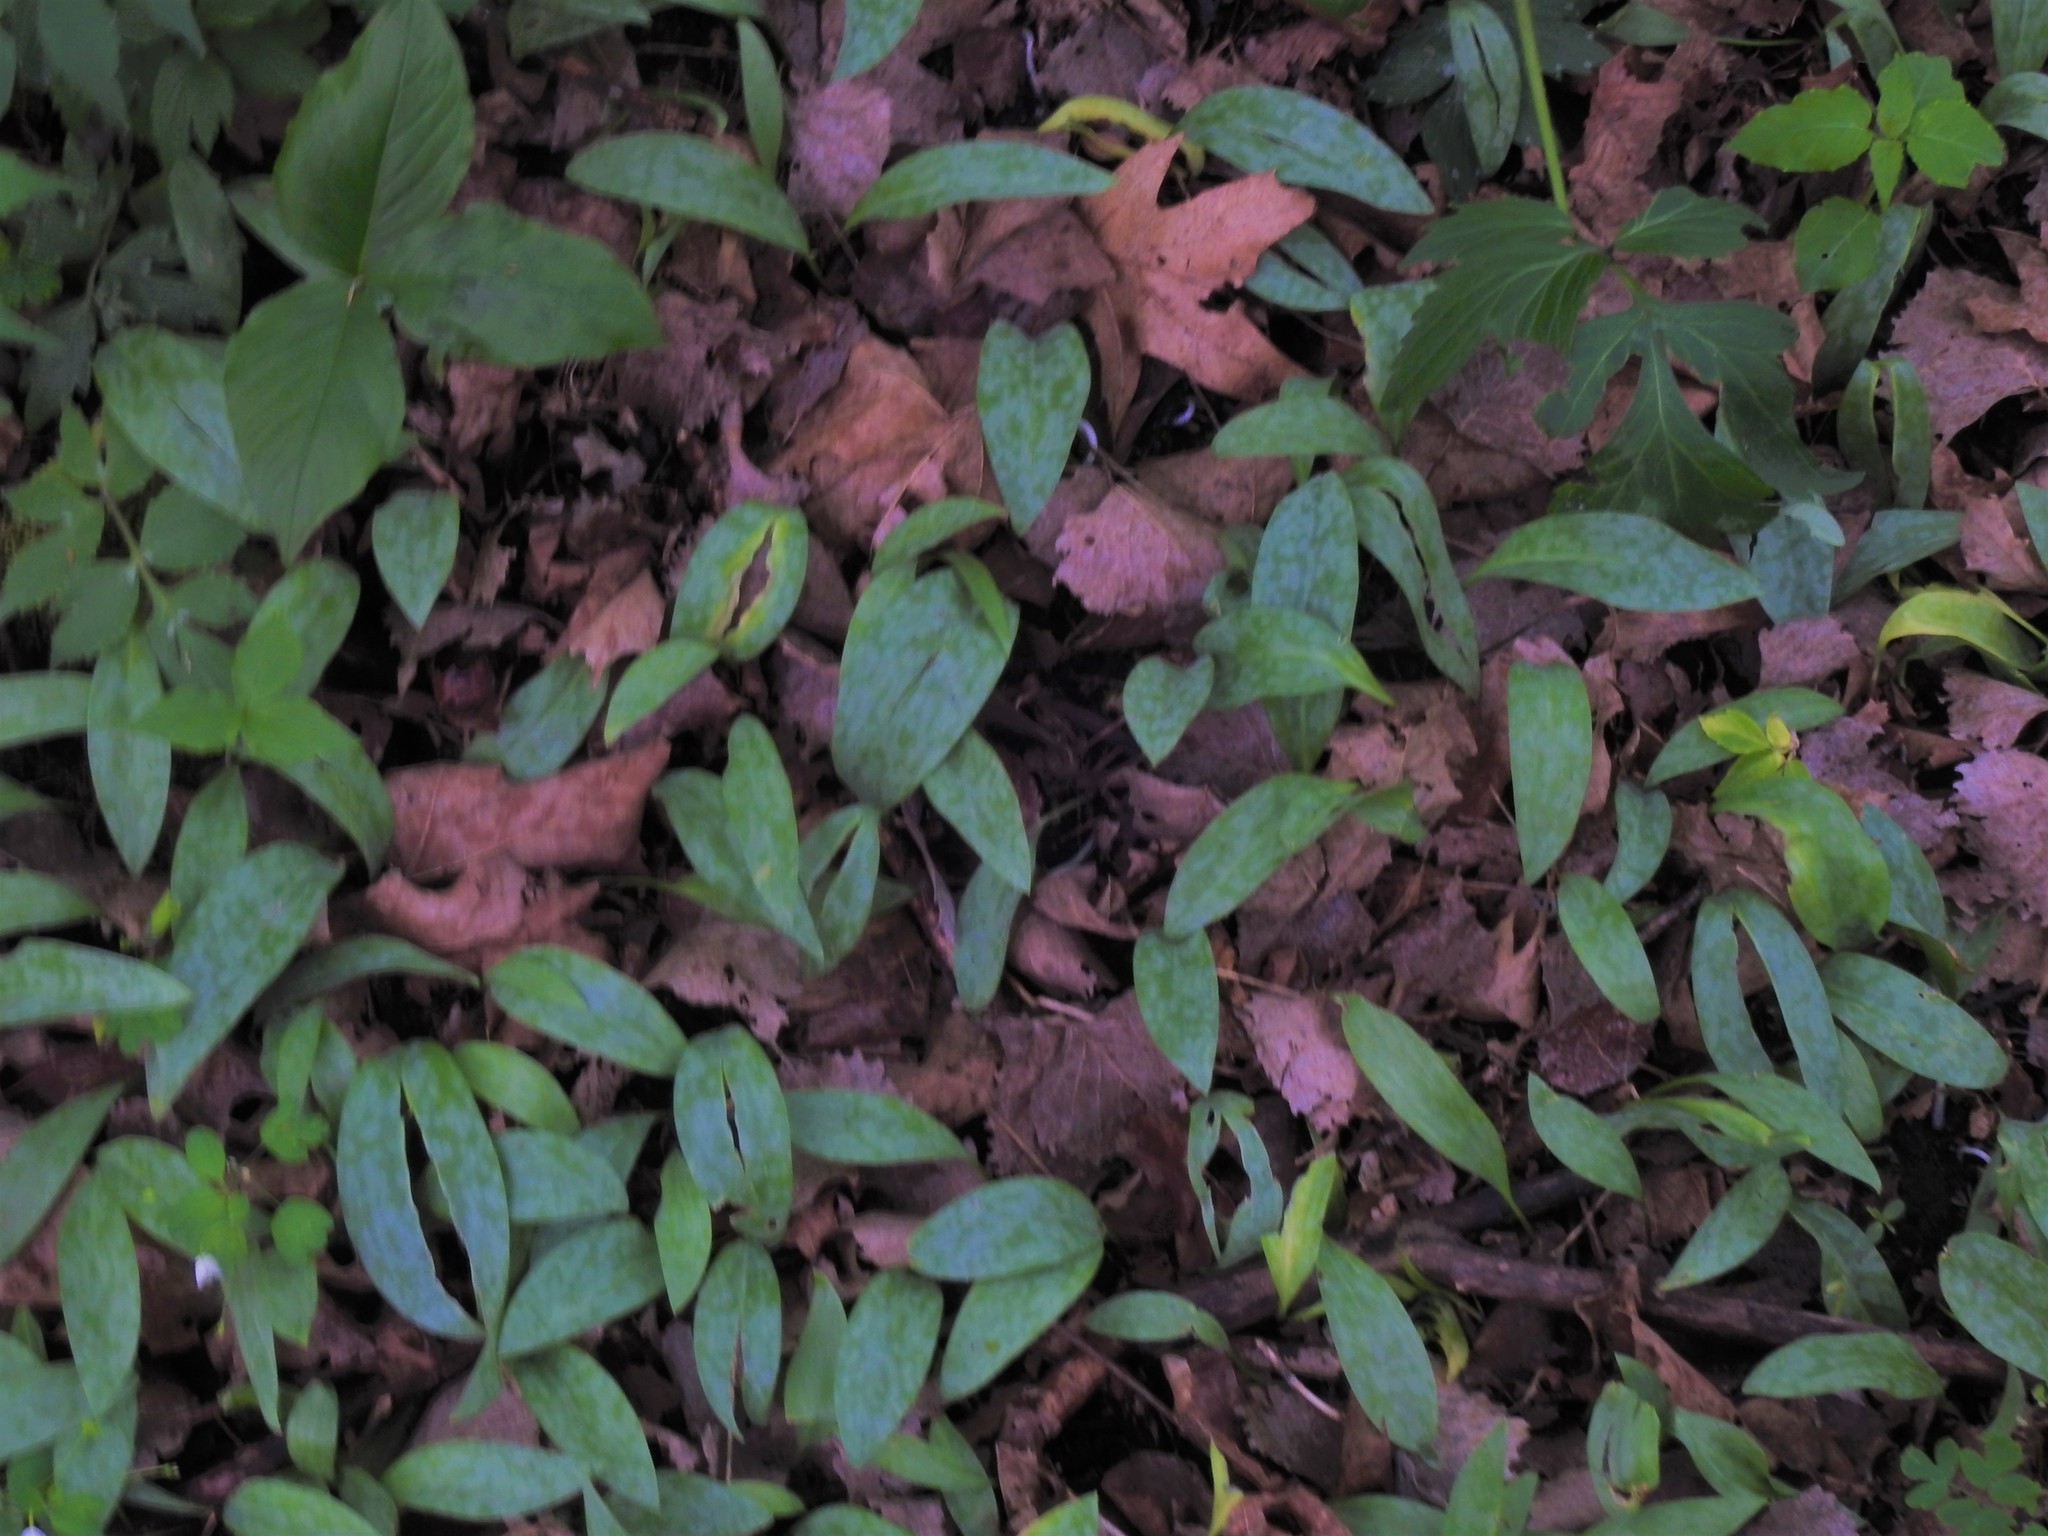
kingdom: Plantae
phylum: Tracheophyta
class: Liliopsida
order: Liliales
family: Liliaceae
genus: Erythronium
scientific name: Erythronium
